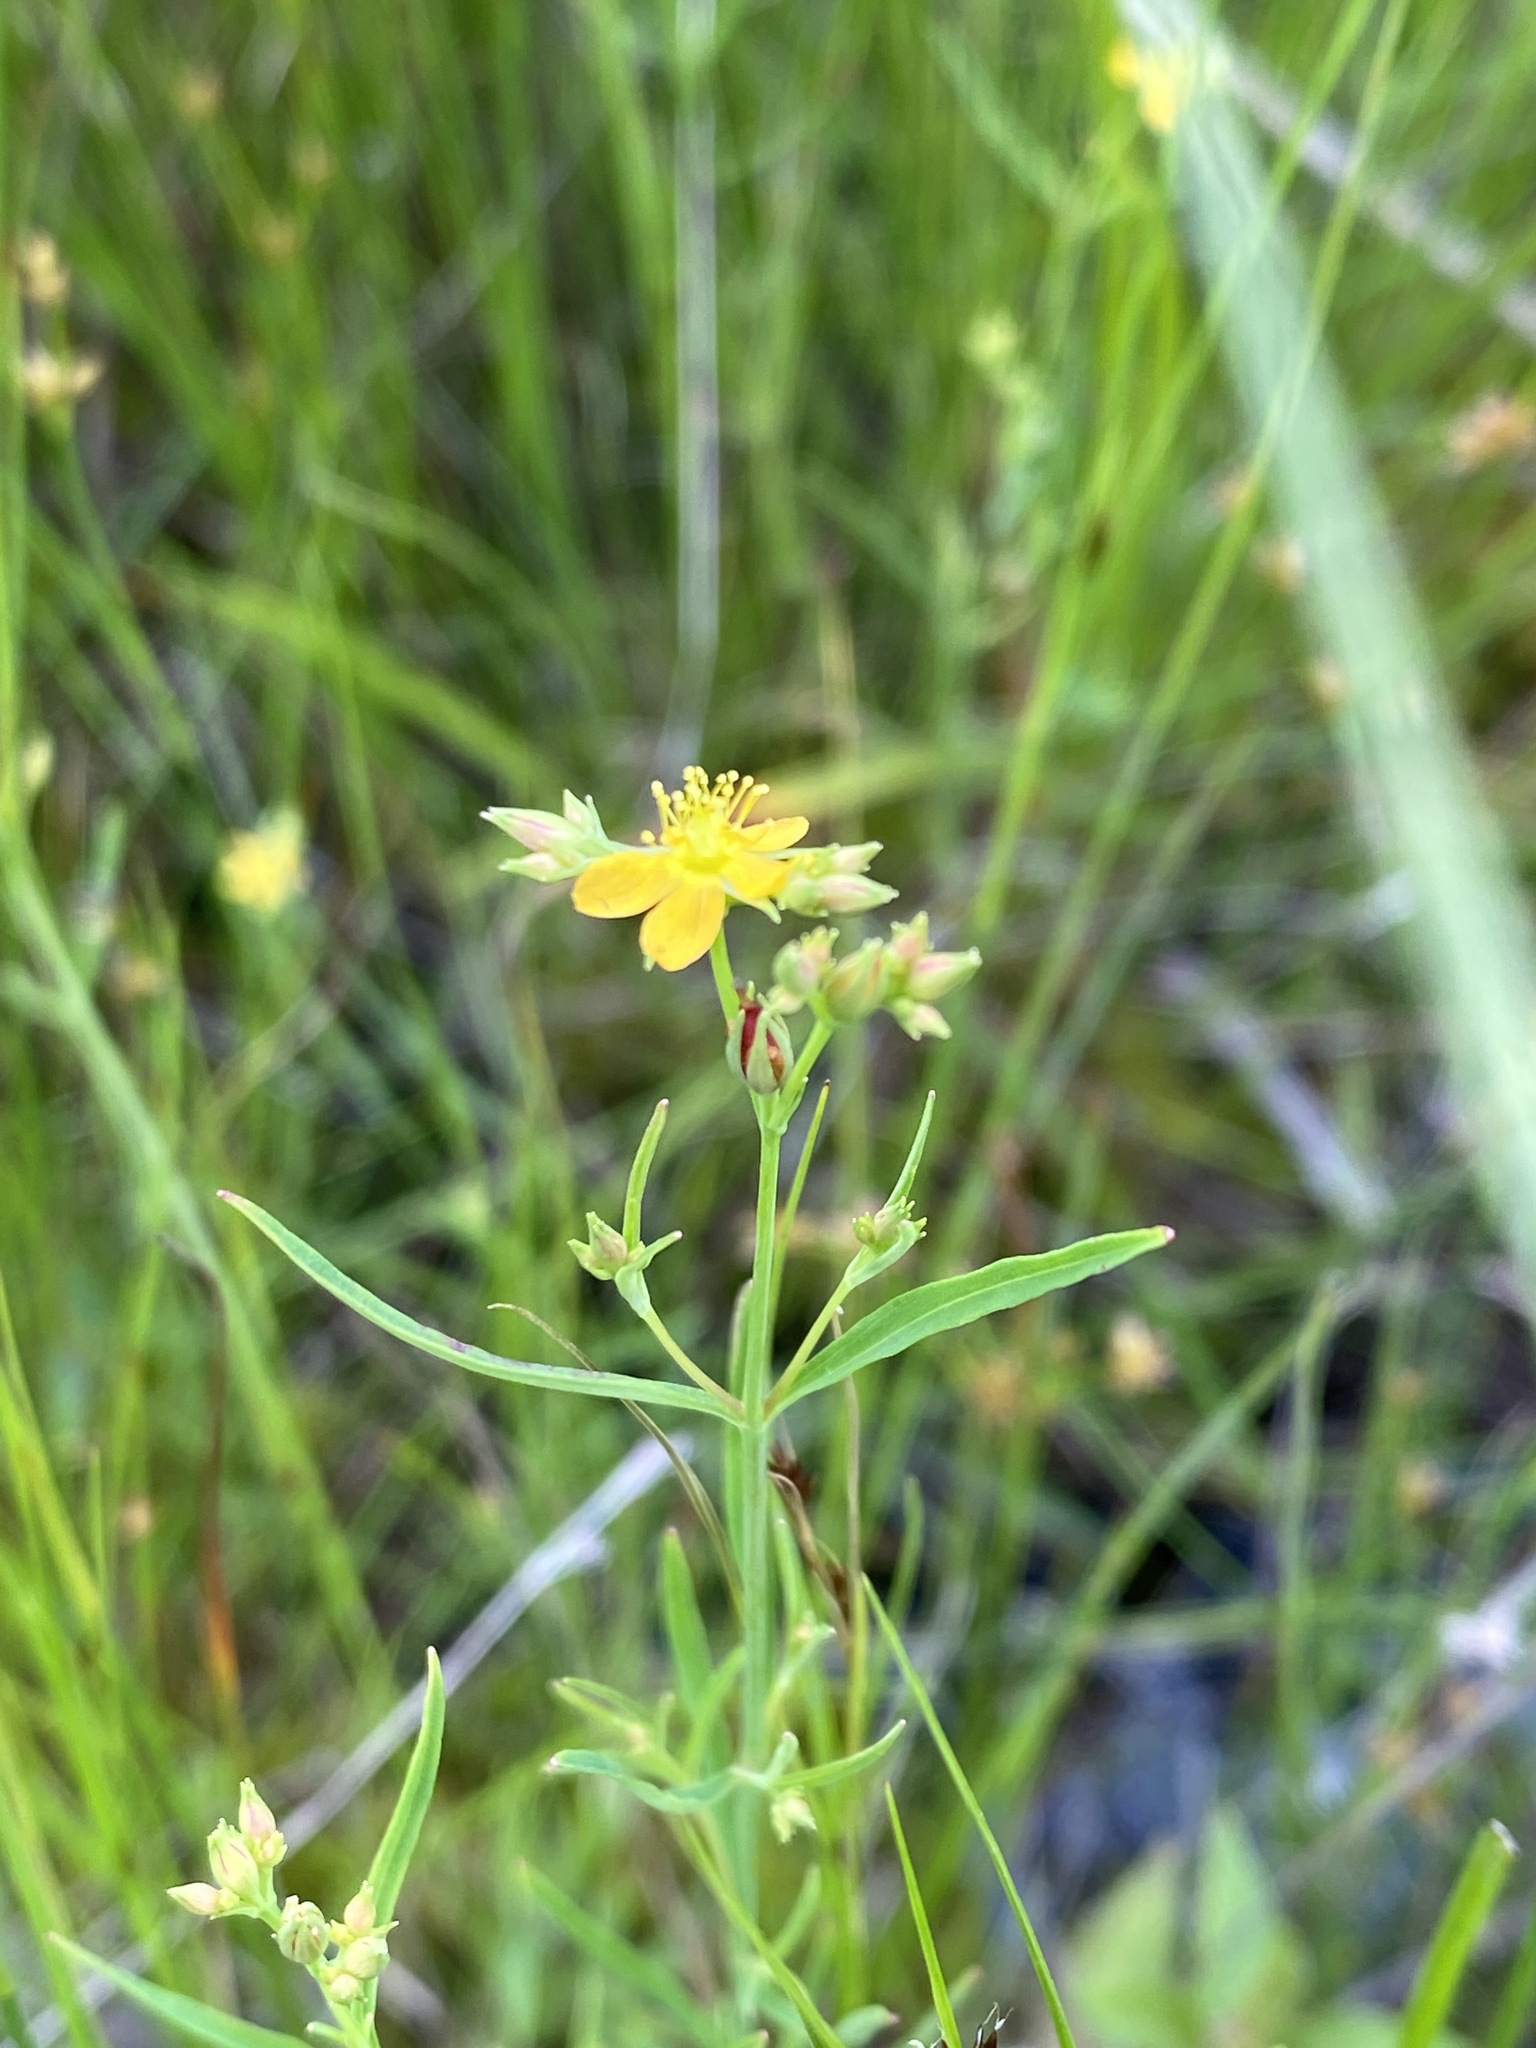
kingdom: Plantae
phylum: Tracheophyta
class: Magnoliopsida
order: Malpighiales
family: Hypericaceae
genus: Hypericum
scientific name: Hypericum canadense
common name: Irish st. john's-wort
